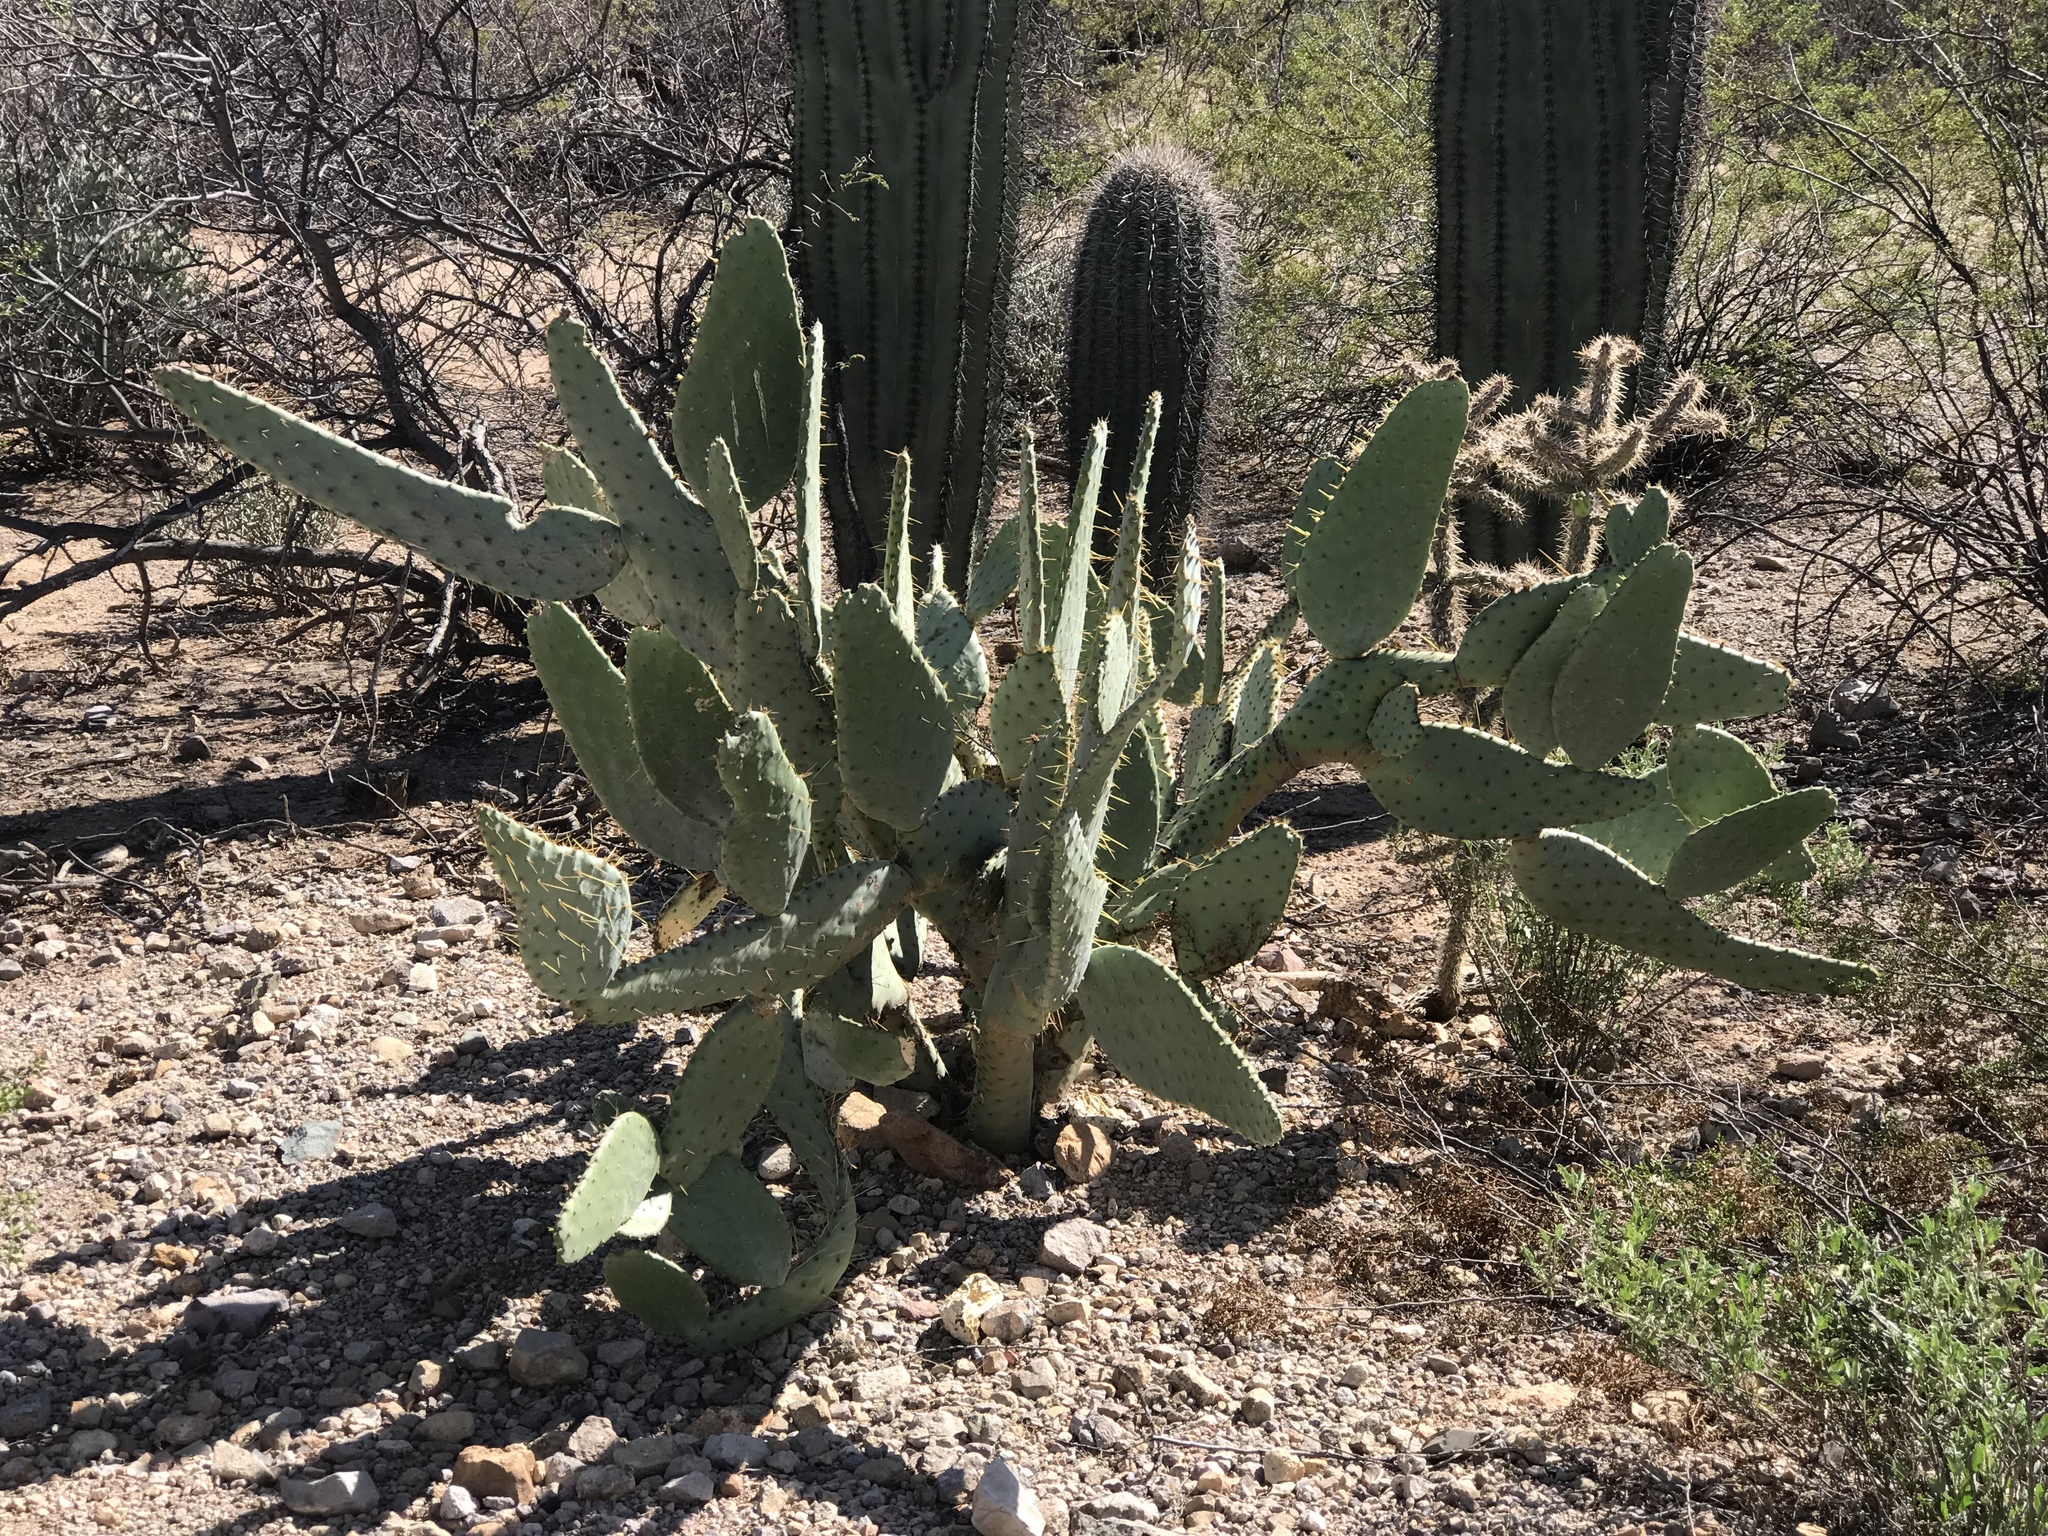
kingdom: Plantae
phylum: Tracheophyta
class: Magnoliopsida
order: Caryophyllales
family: Cactaceae
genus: Opuntia
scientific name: Opuntia engelmannii
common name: Cactus-apple
